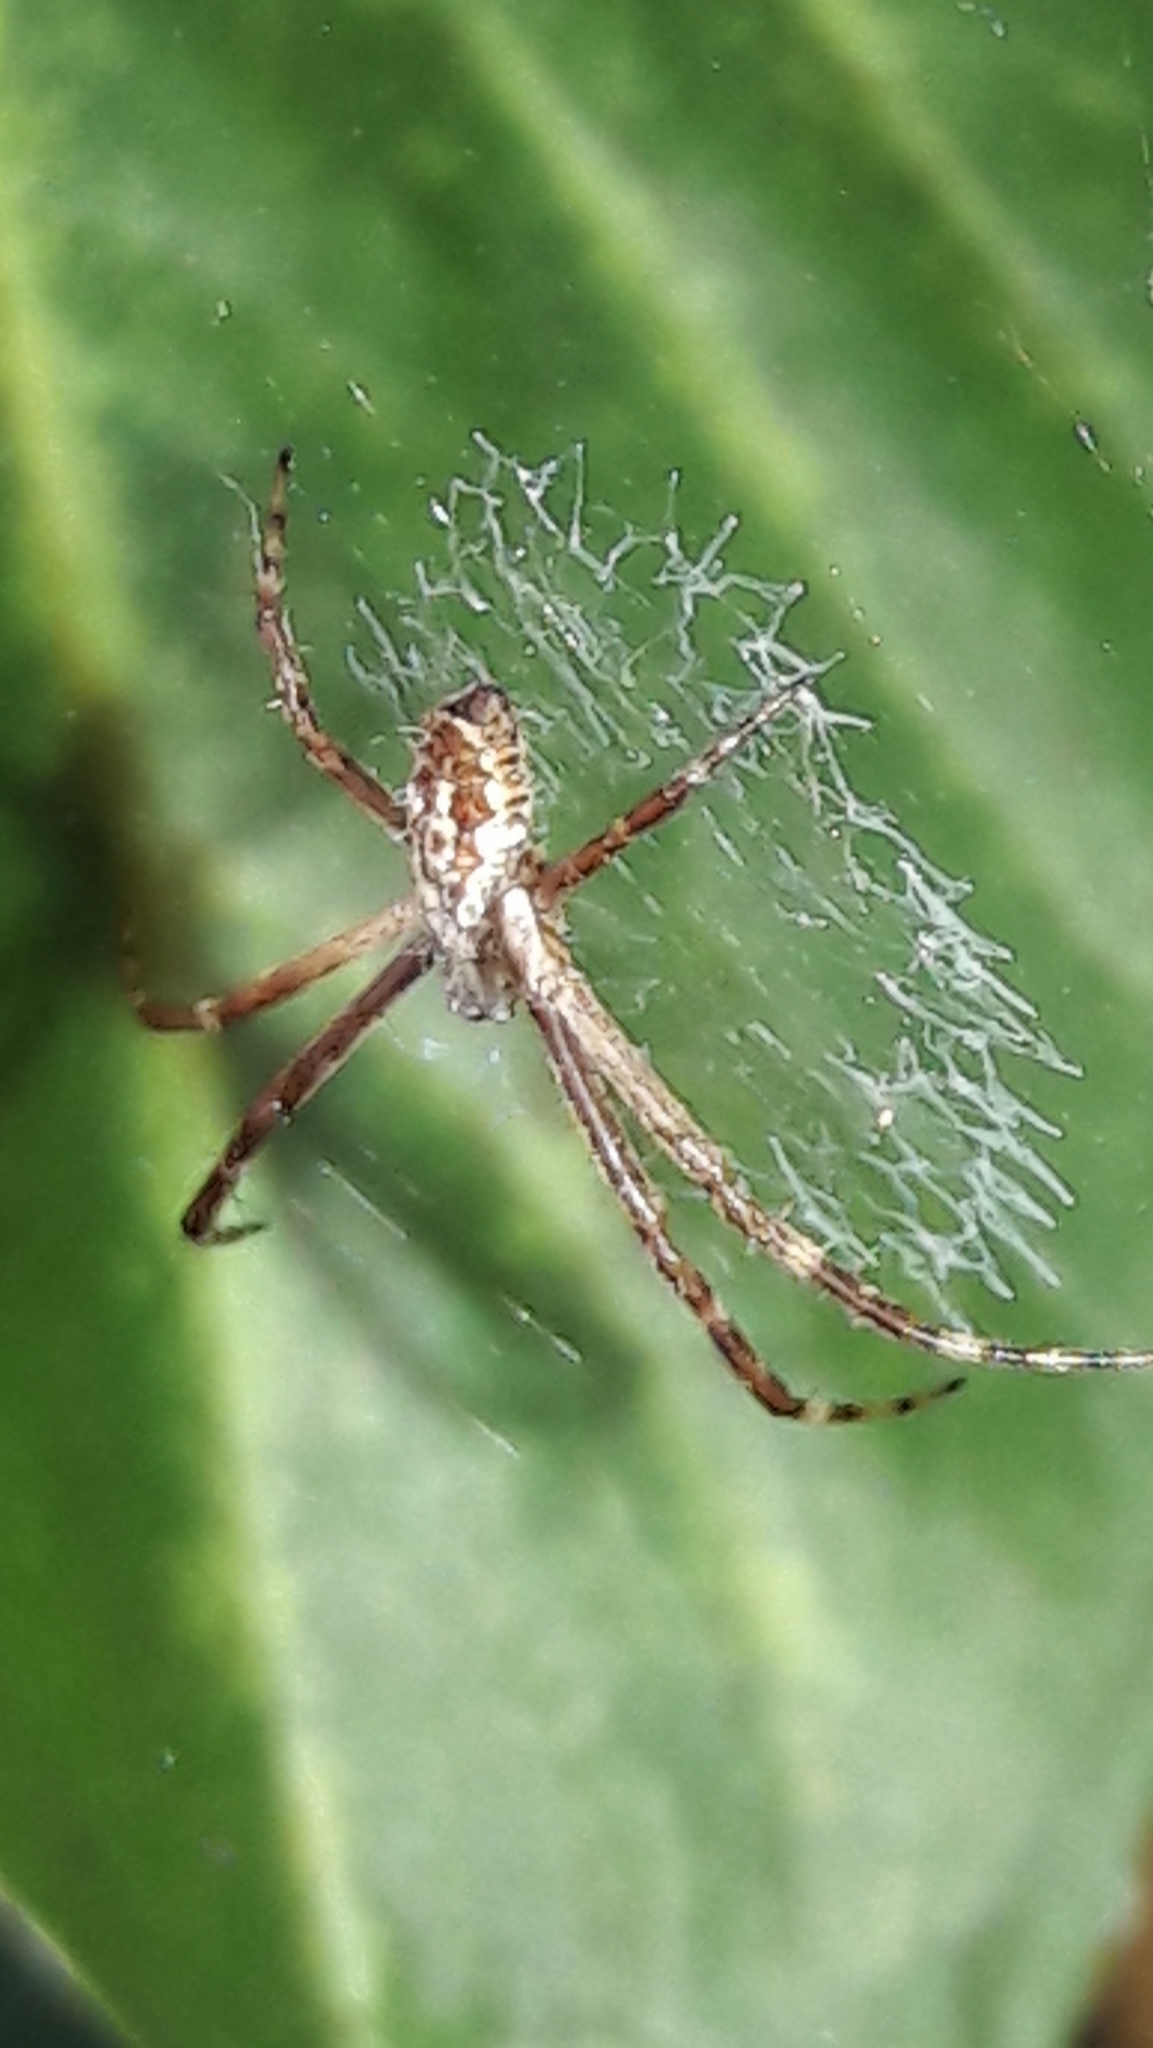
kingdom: Animalia
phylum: Arthropoda
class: Arachnida
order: Araneae
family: Araneidae
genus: Argiope
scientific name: Argiope argentata
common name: Orb weavers
